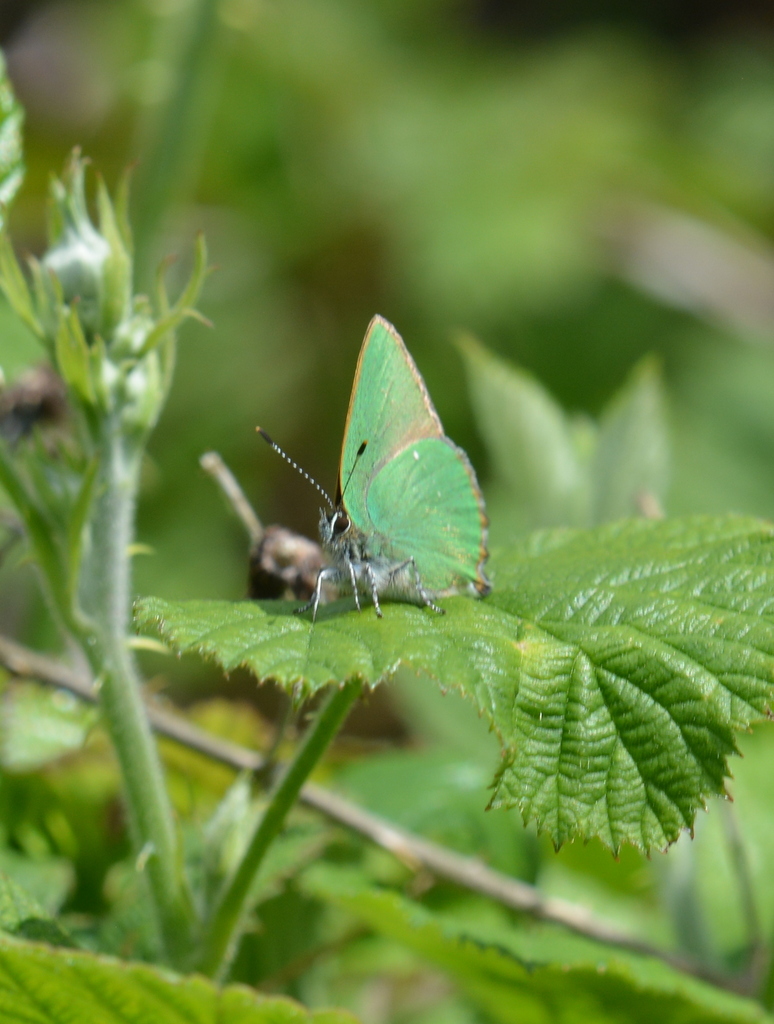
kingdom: Animalia
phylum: Arthropoda
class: Insecta
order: Lepidoptera
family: Lycaenidae
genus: Callophrys
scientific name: Callophrys rubi
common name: Green hairstreak
